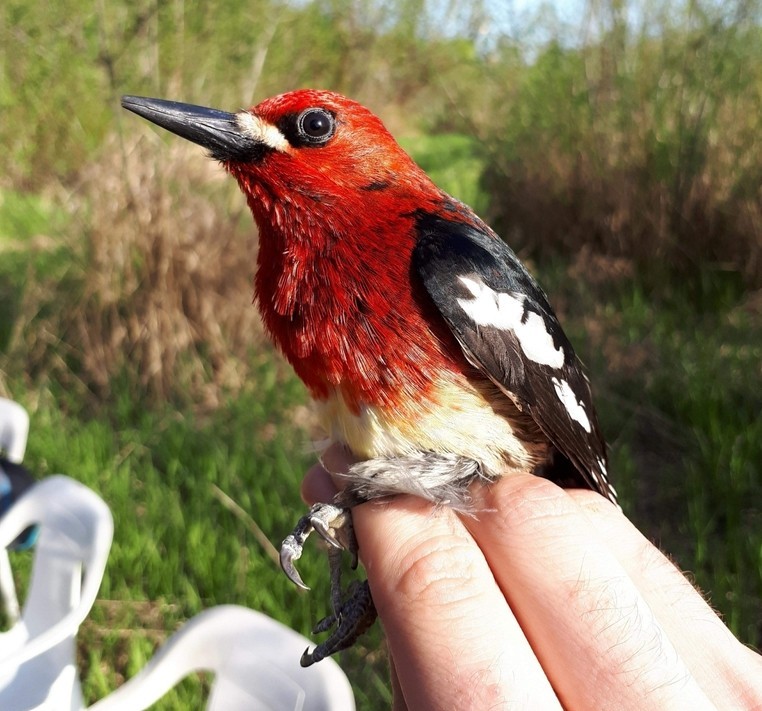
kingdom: Animalia
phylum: Chordata
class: Aves
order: Piciformes
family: Picidae
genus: Sphyrapicus
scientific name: Sphyrapicus ruber
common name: Red-breasted sapsucker
